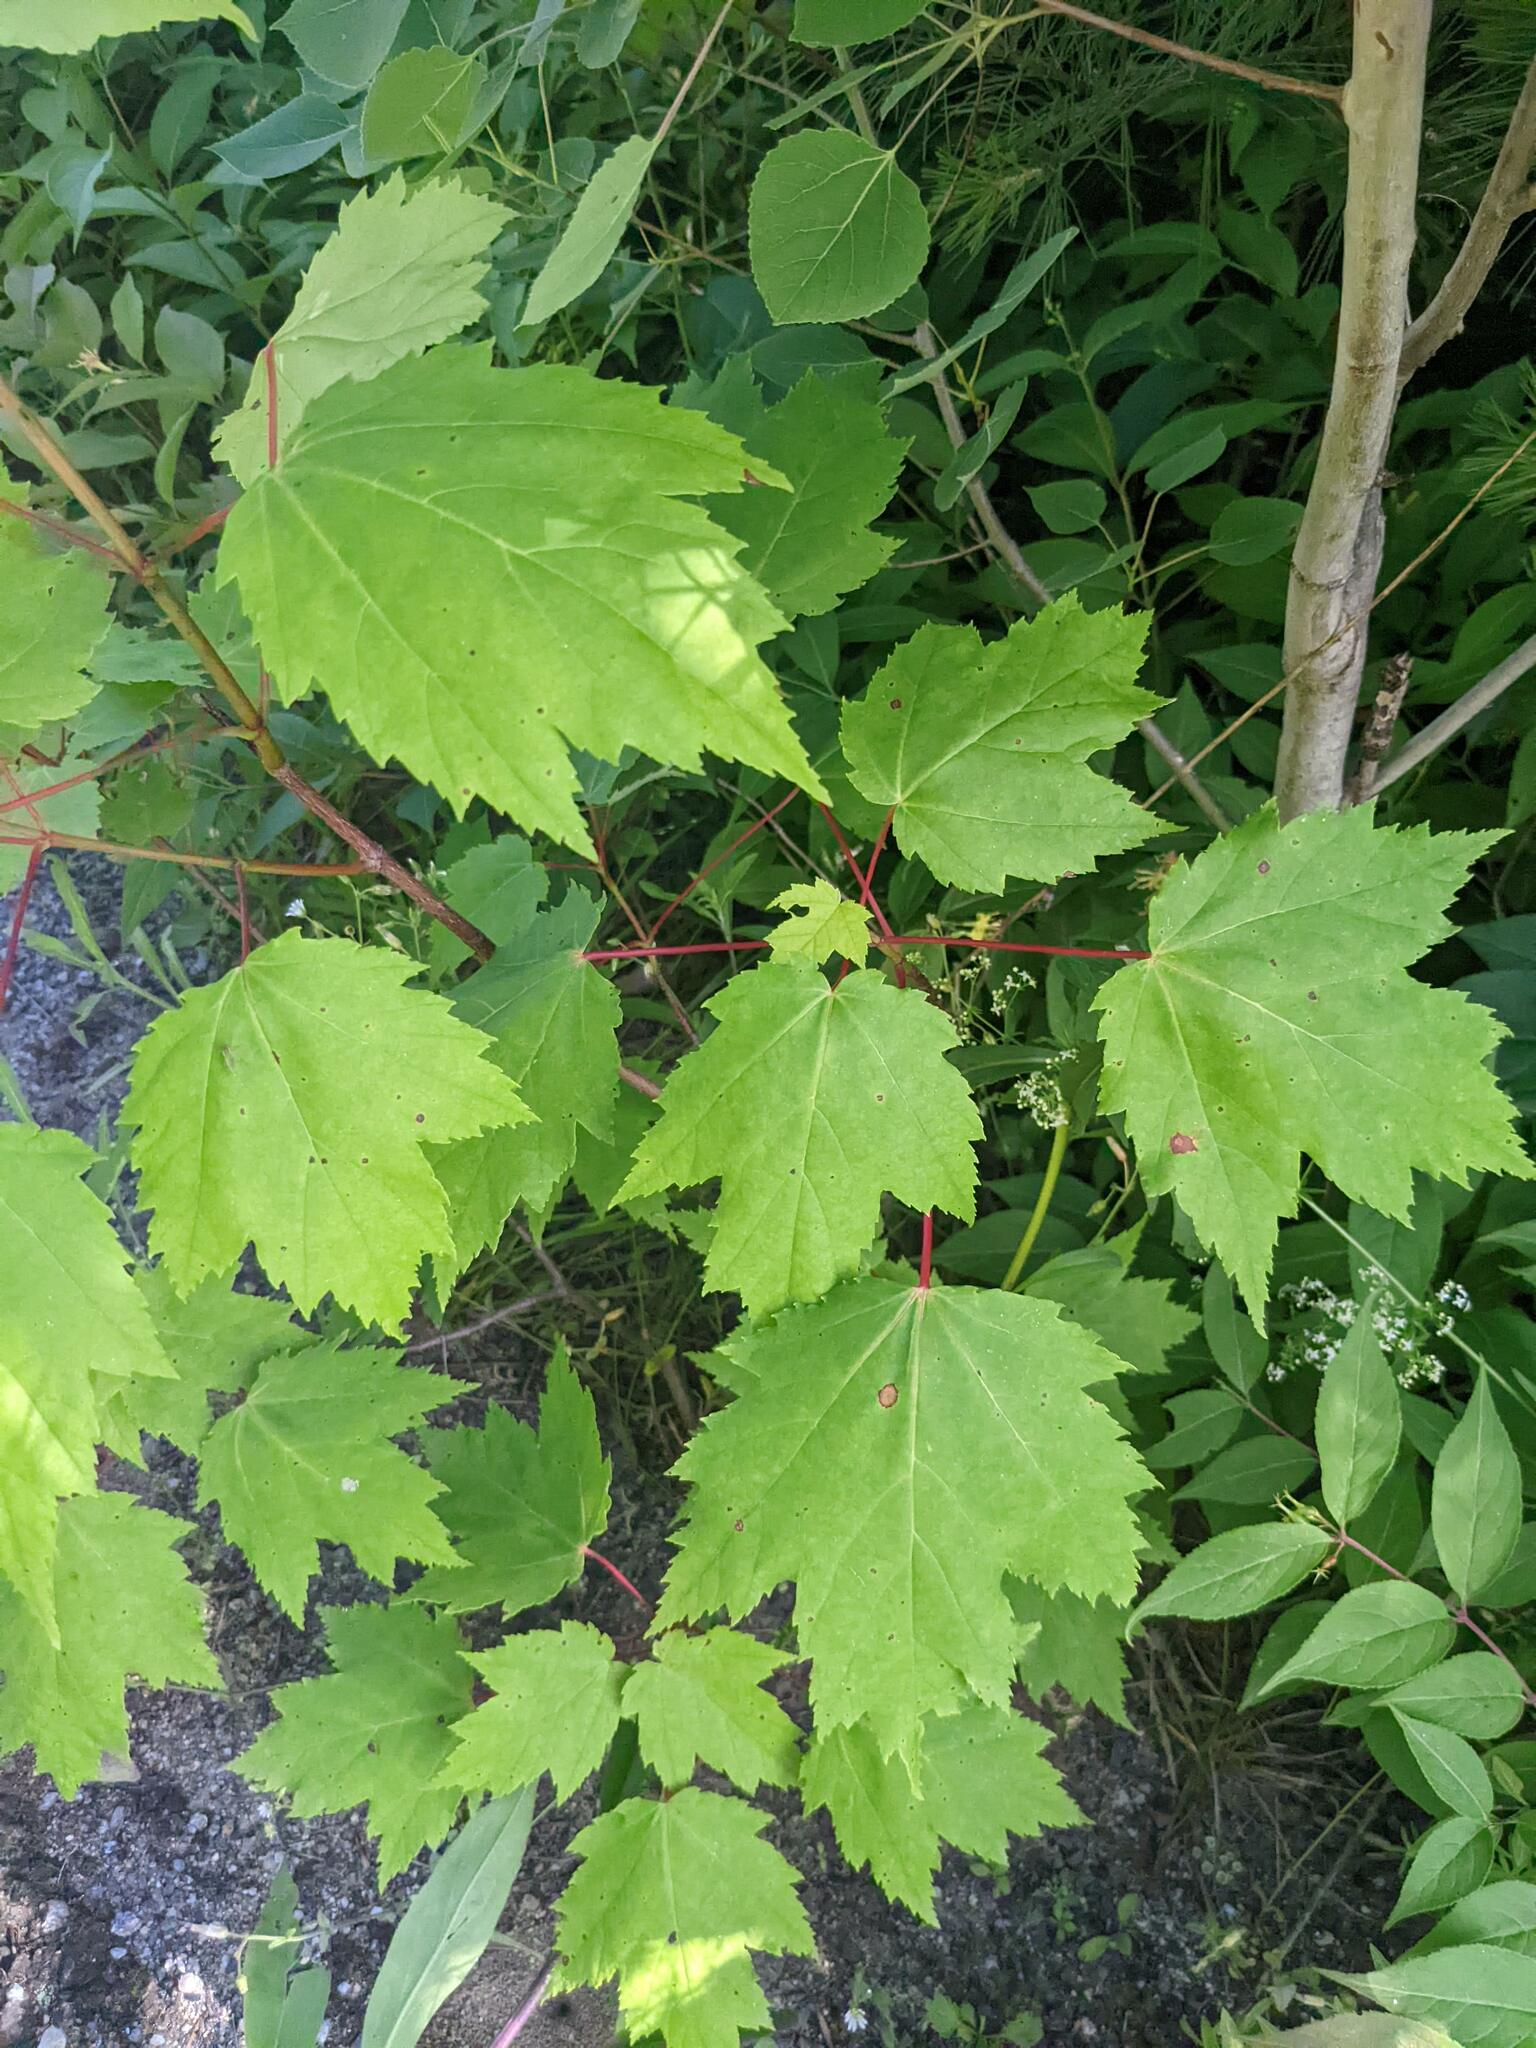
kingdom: Plantae
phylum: Tracheophyta
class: Magnoliopsida
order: Sapindales
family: Sapindaceae
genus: Acer
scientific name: Acer rubrum
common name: Red maple
